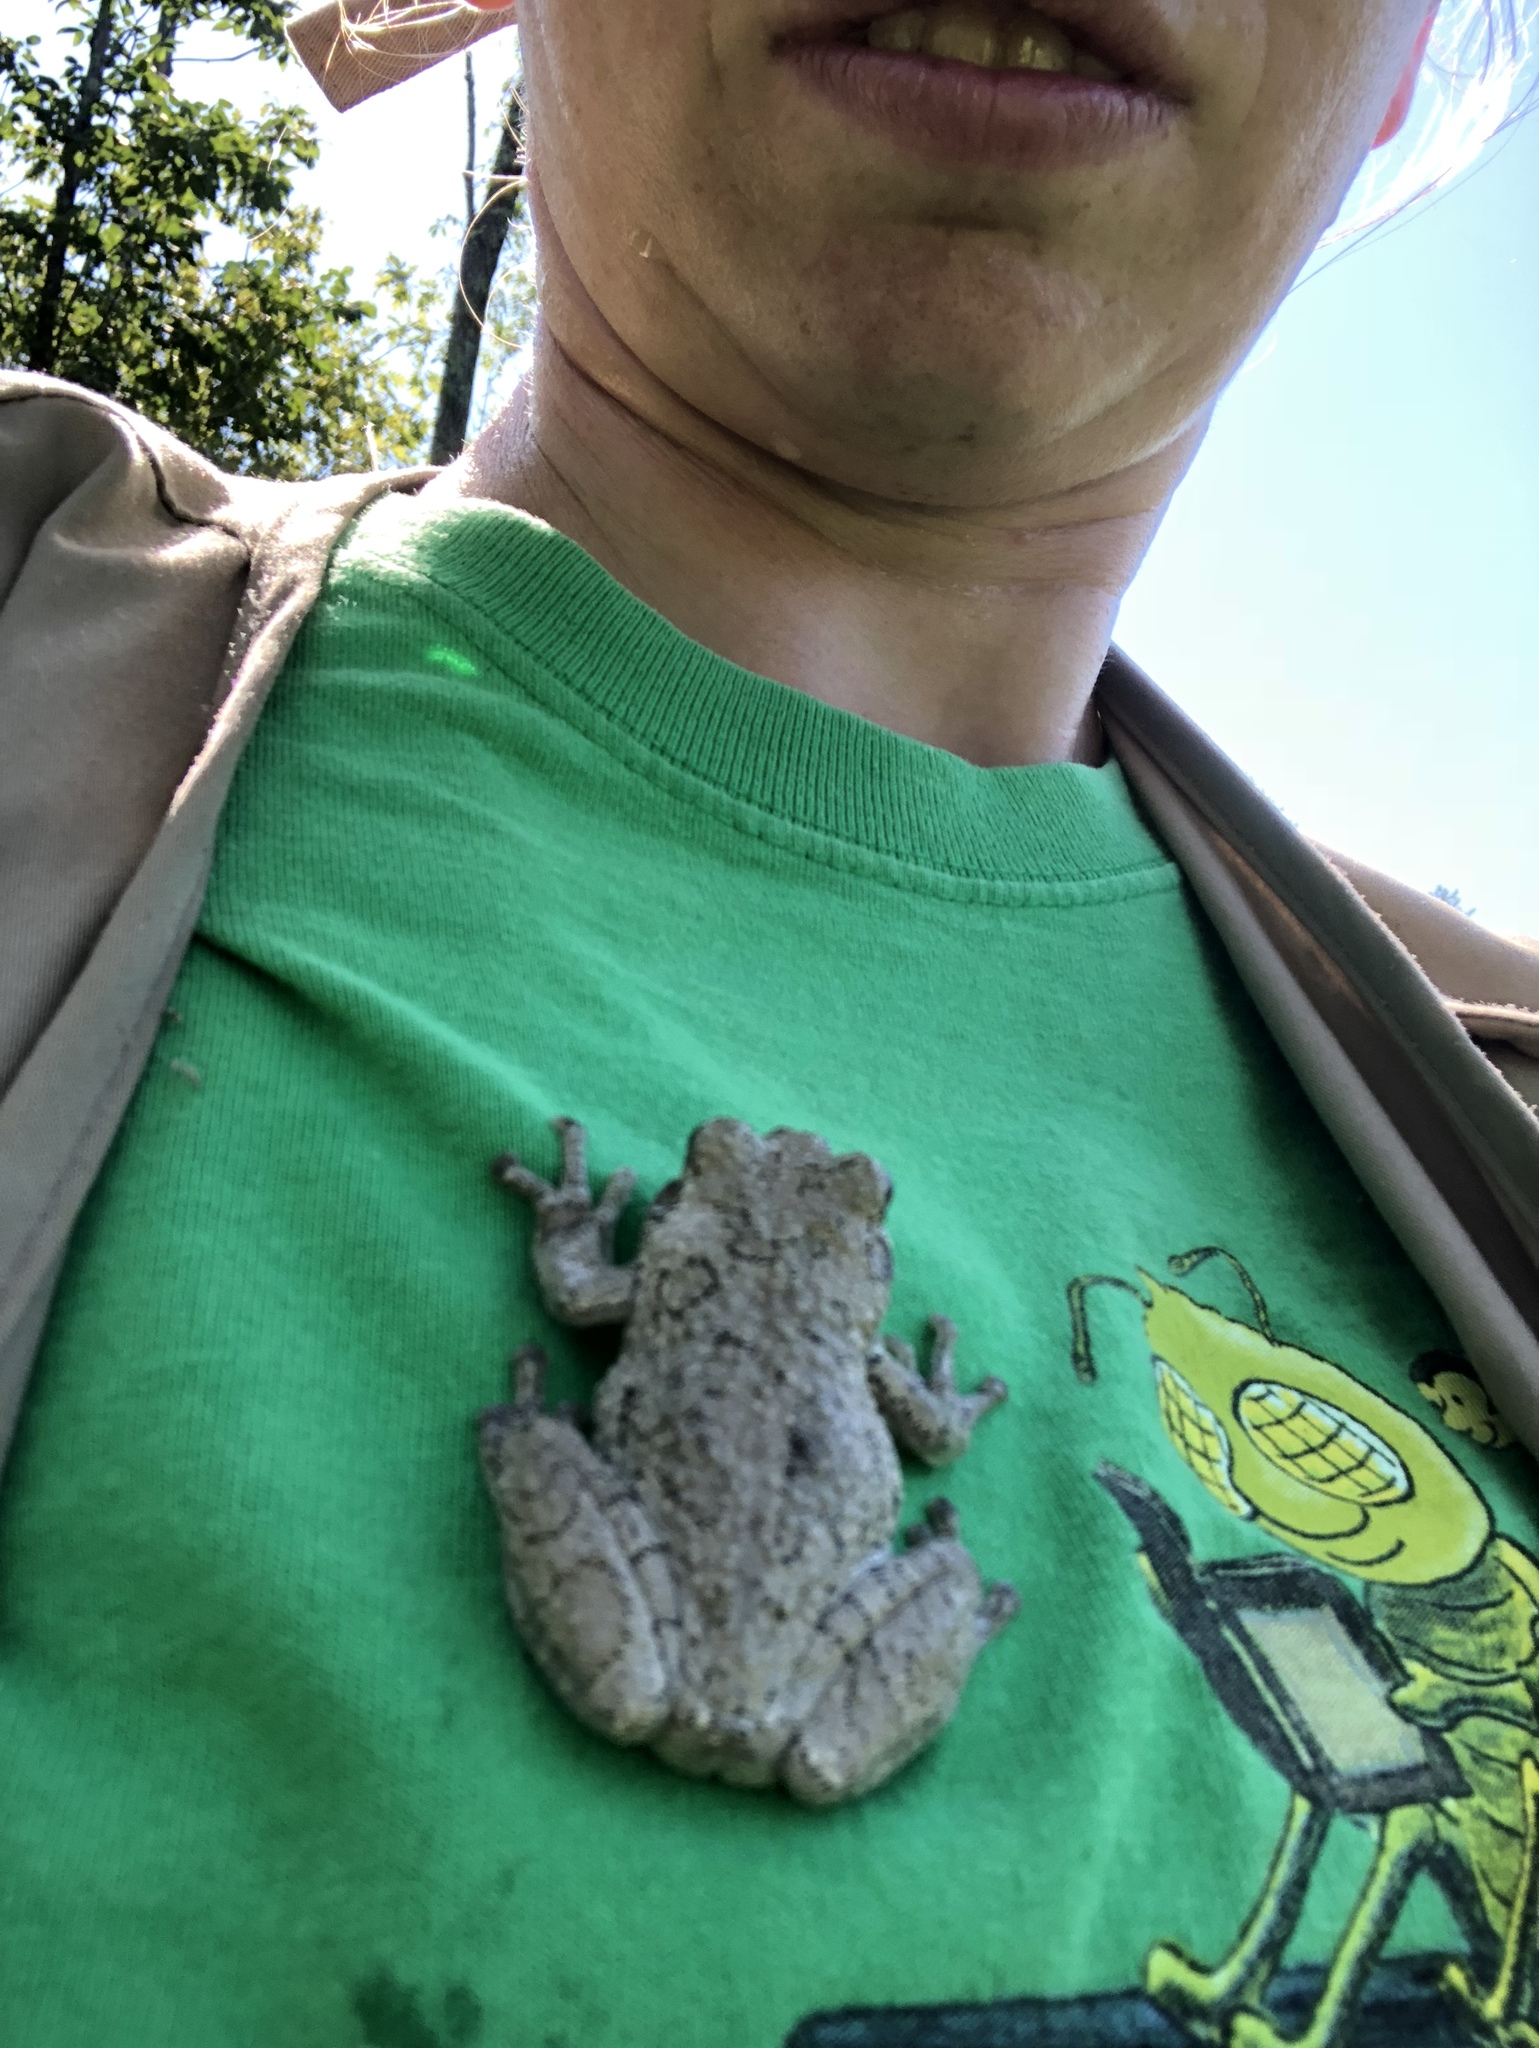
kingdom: Animalia
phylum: Chordata
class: Amphibia
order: Anura
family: Hylidae
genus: Hyla
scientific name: Hyla
